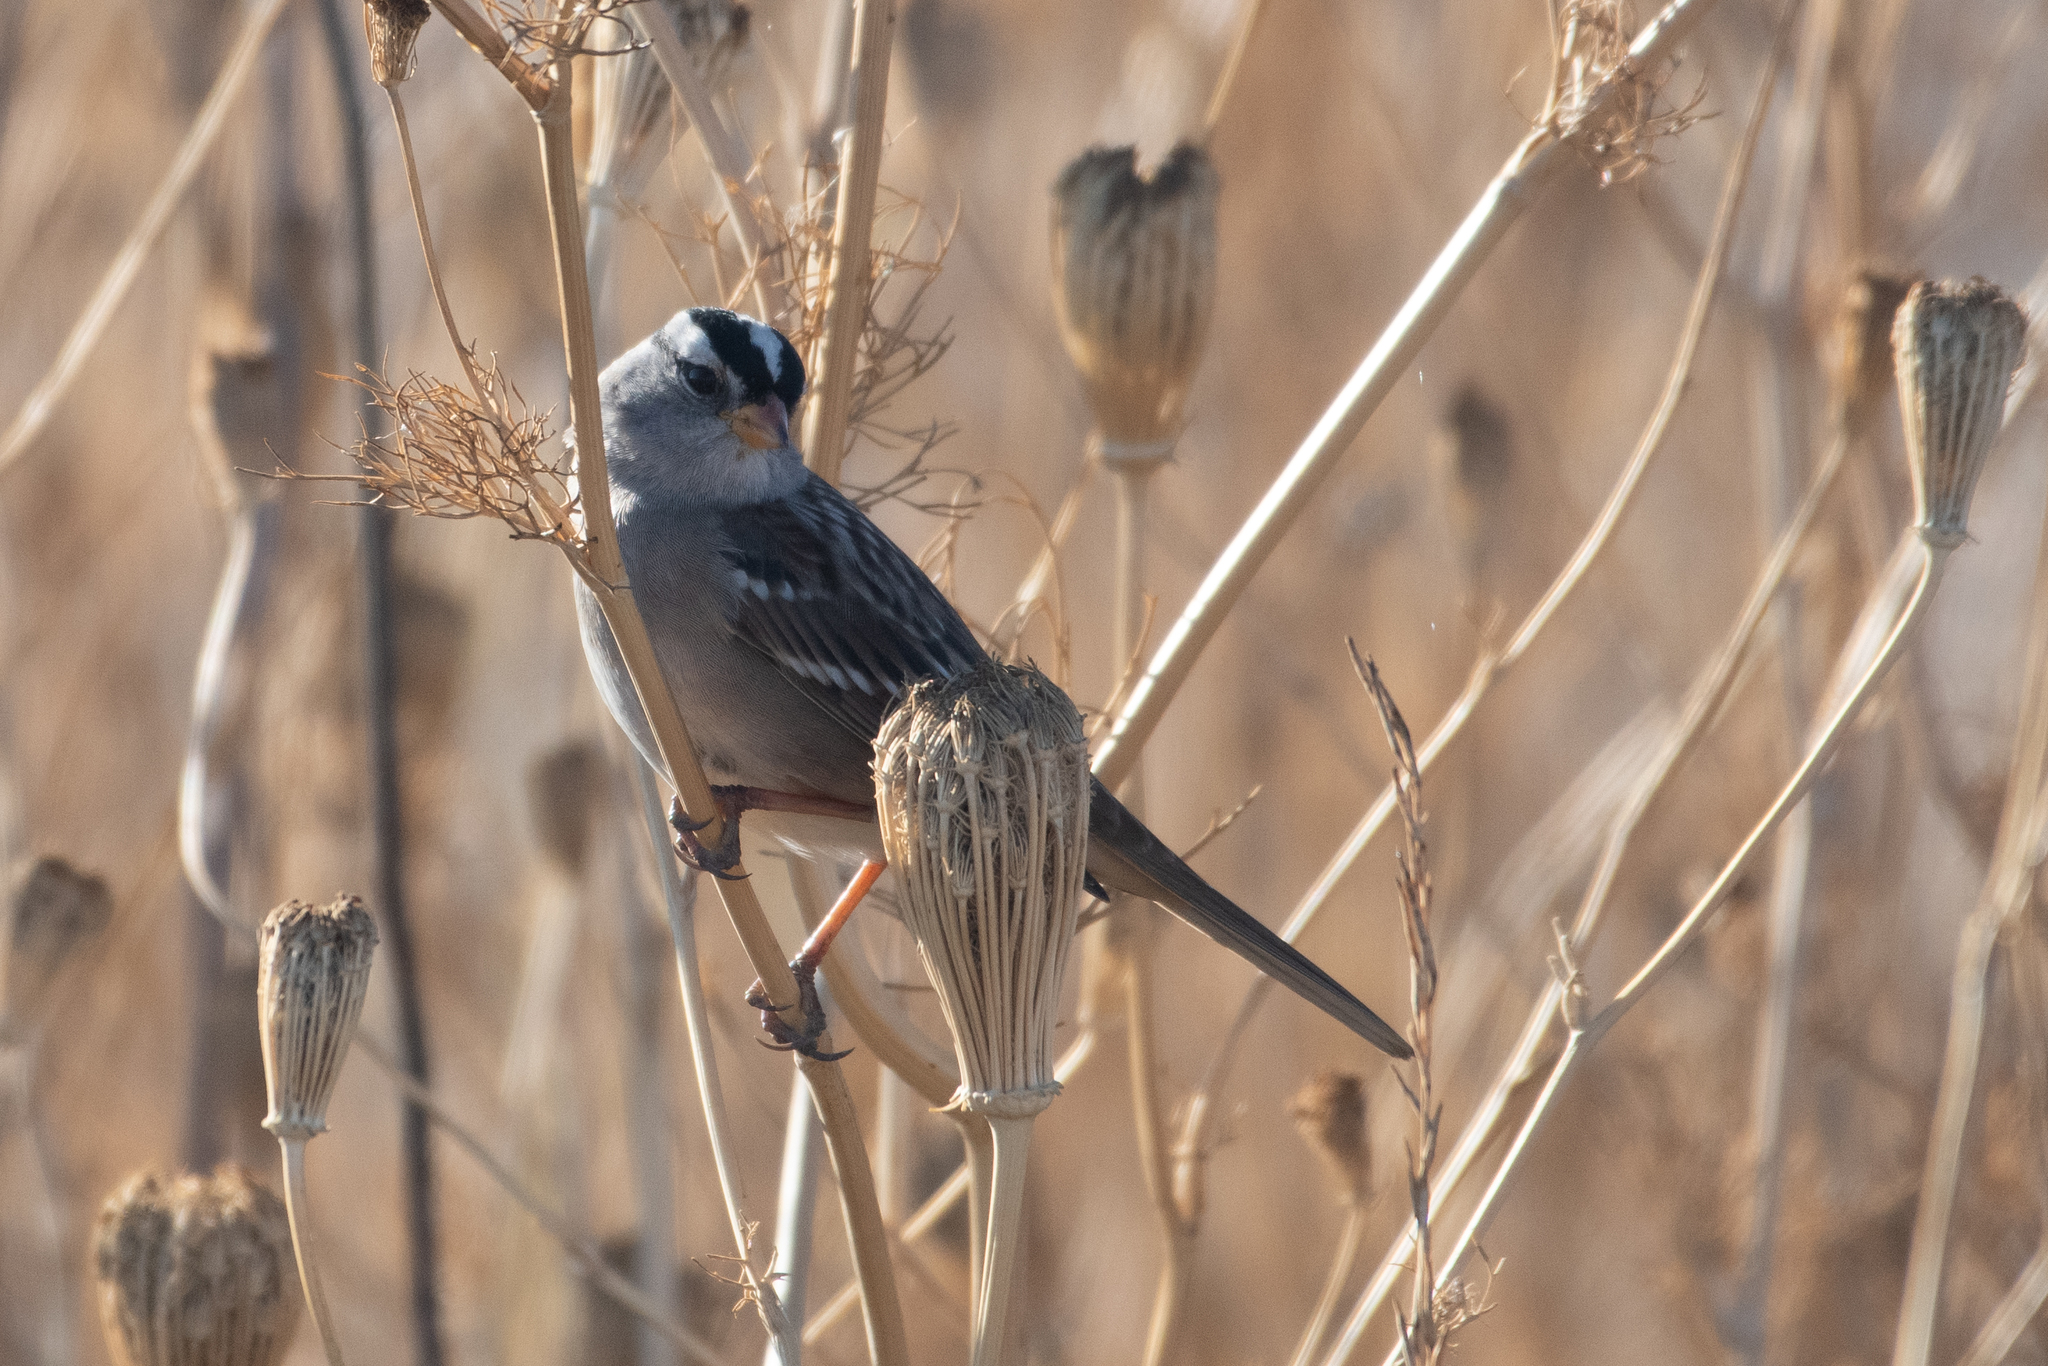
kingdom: Animalia
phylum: Chordata
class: Aves
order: Passeriformes
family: Passerellidae
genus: Zonotrichia
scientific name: Zonotrichia leucophrys
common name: White-crowned sparrow
